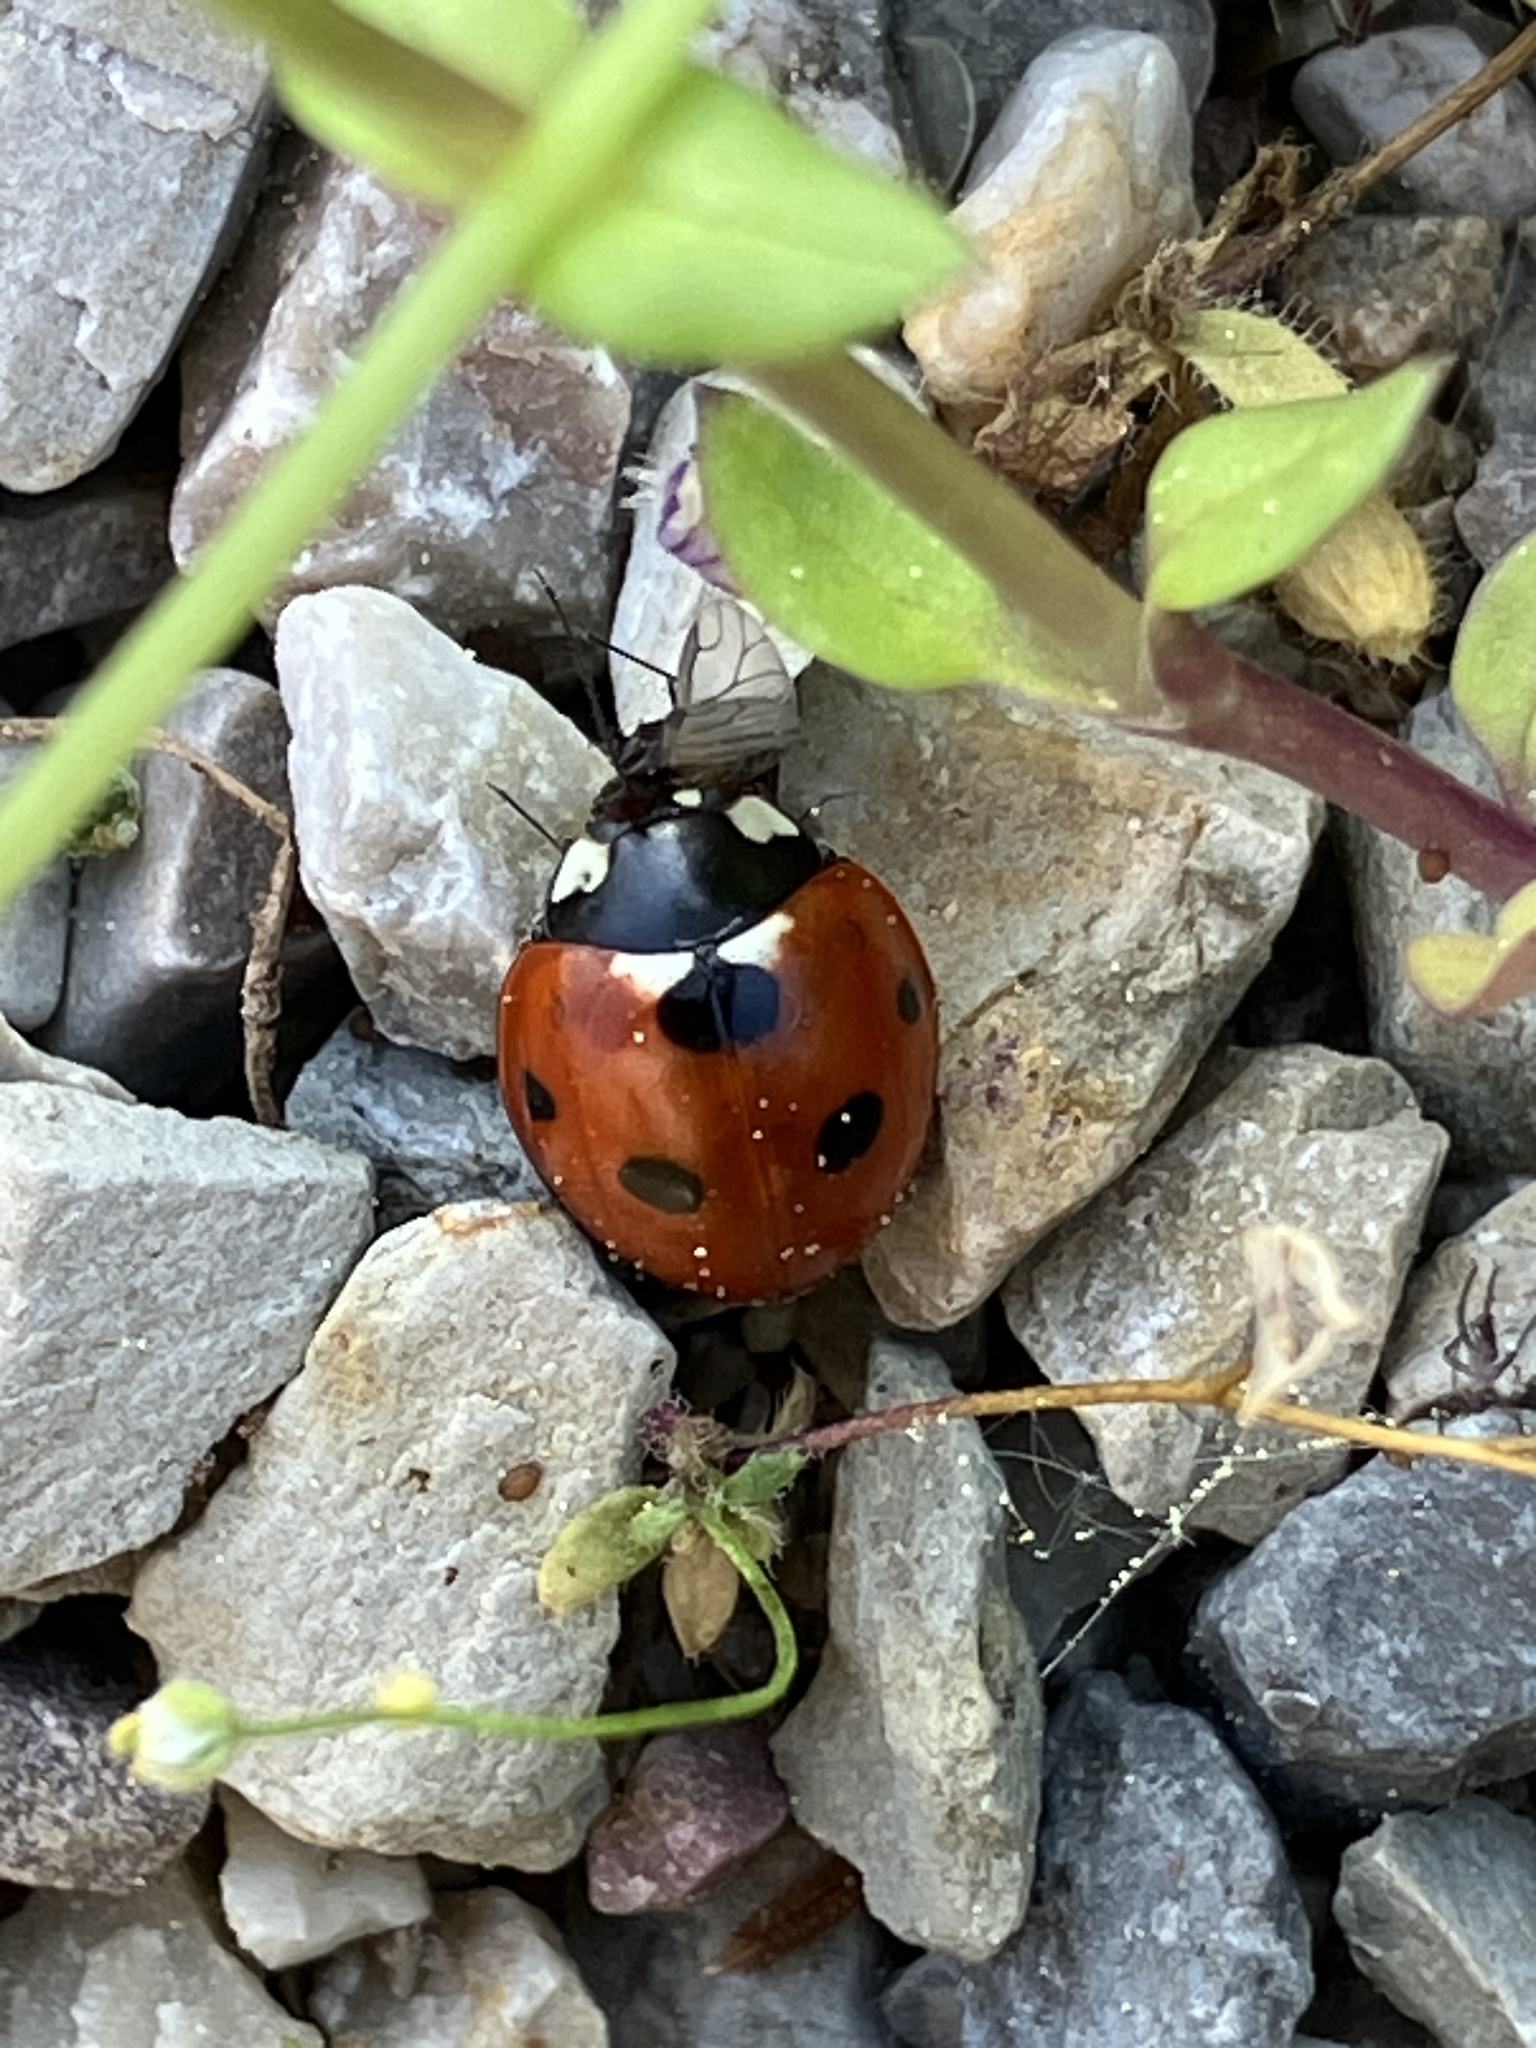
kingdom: Animalia
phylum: Arthropoda
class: Insecta
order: Coleoptera
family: Coccinellidae
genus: Coccinella
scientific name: Coccinella septempunctata
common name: Sevenspotted lady beetle
